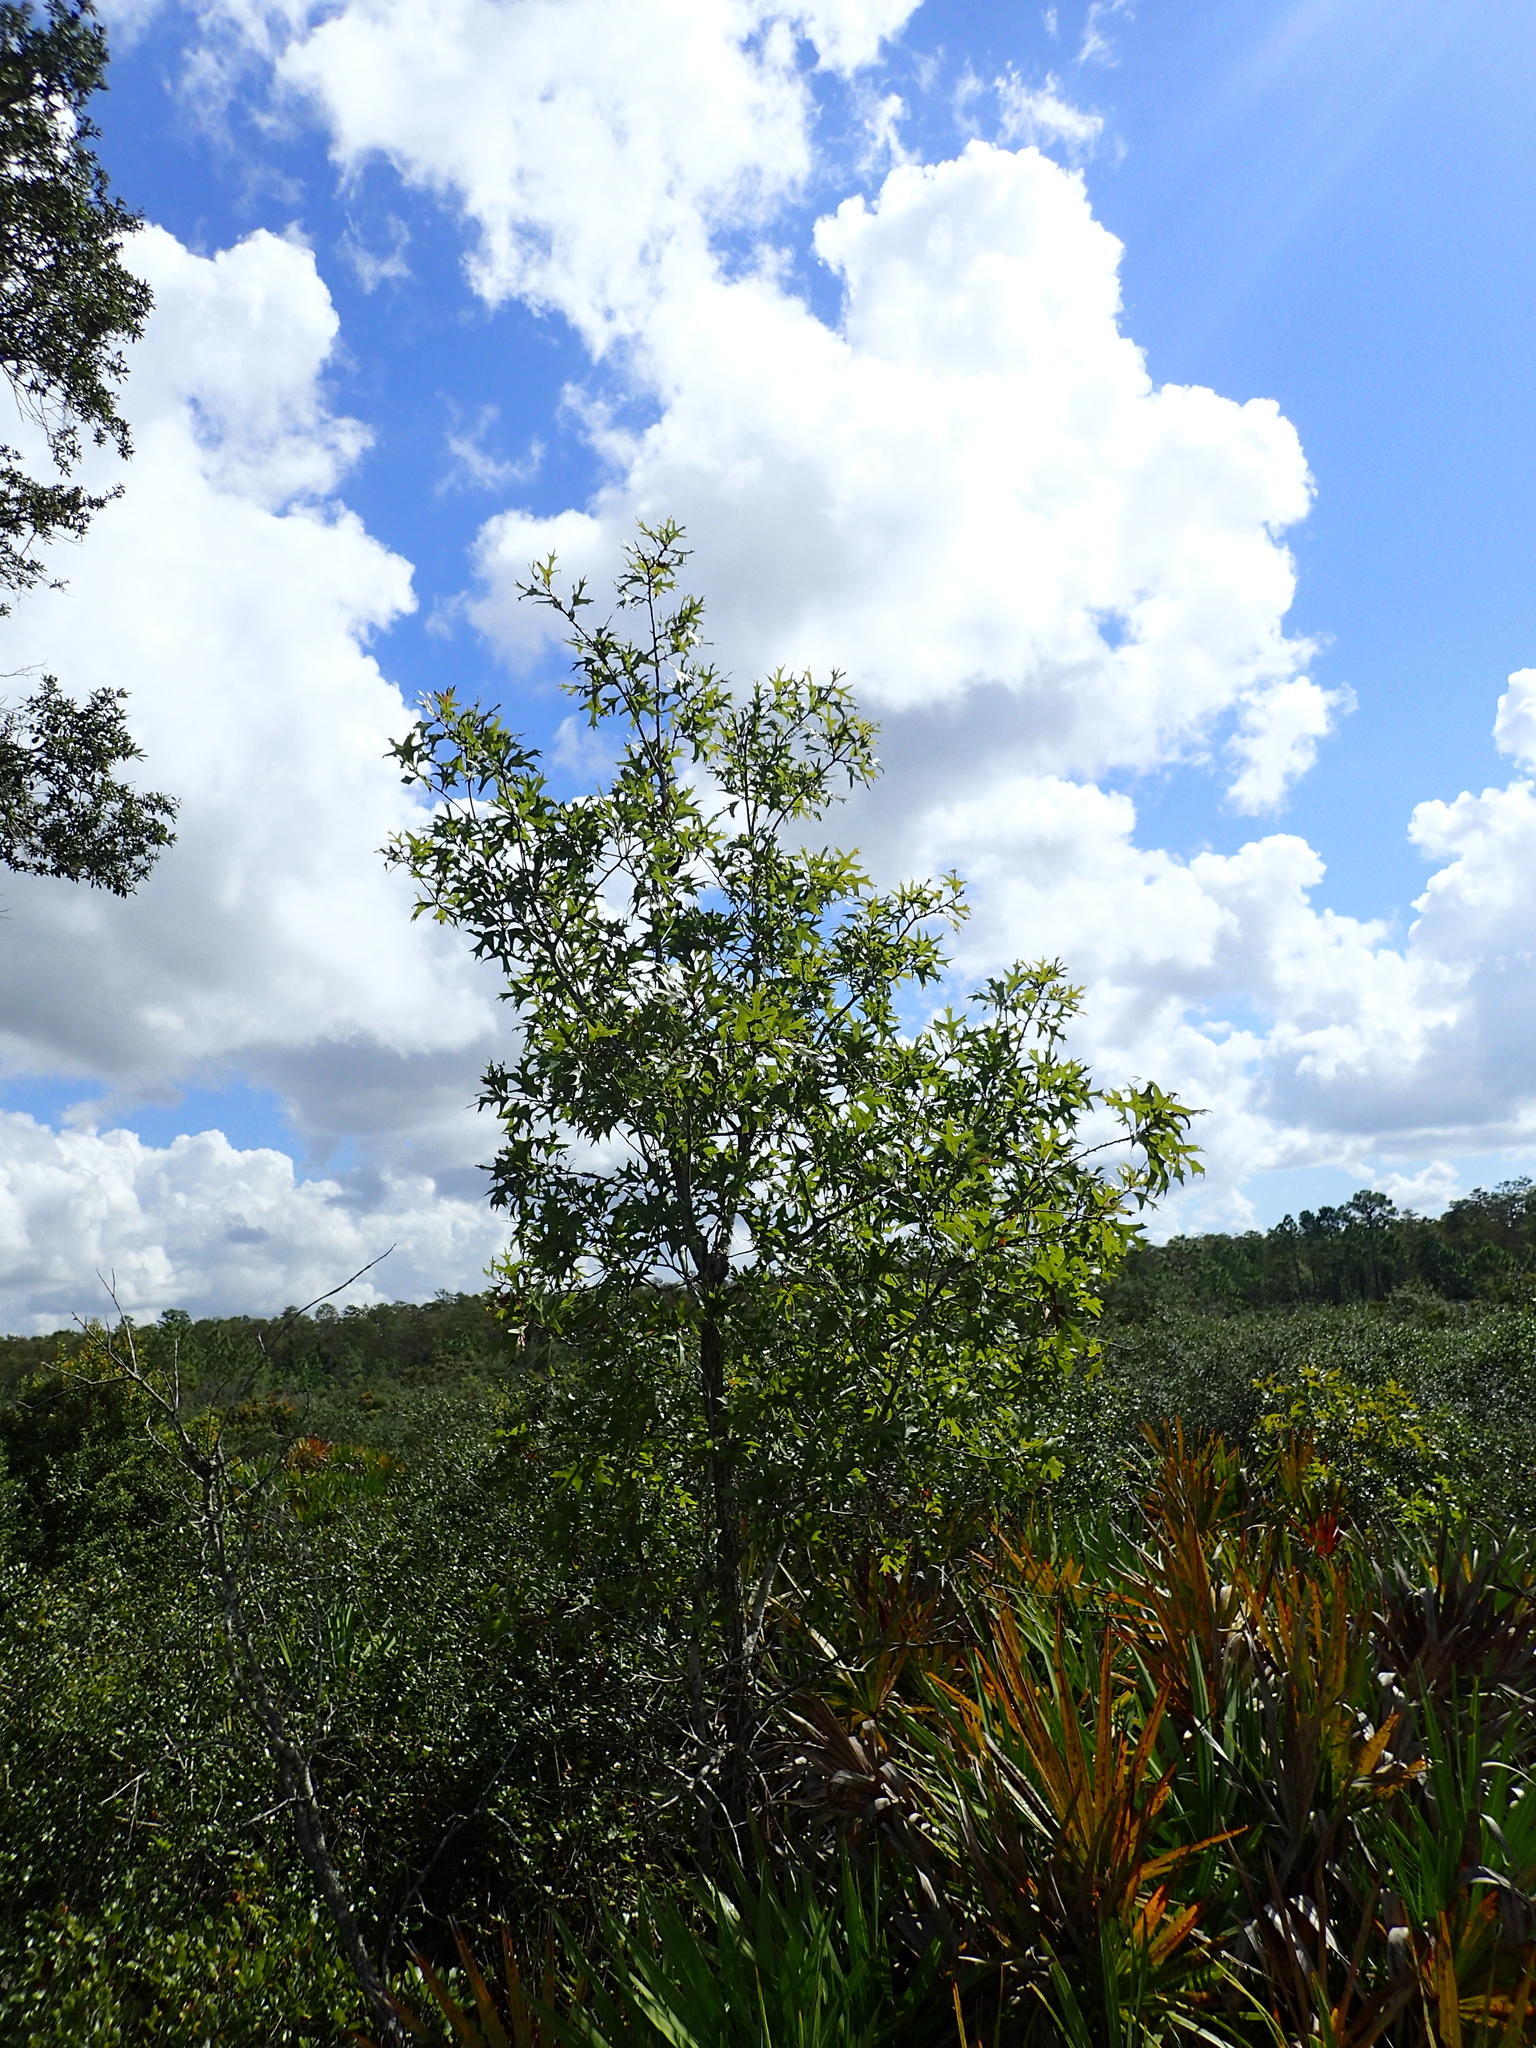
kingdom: Plantae
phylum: Tracheophyta
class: Magnoliopsida
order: Fagales
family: Fagaceae
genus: Quercus
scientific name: Quercus laevis
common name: Turkey oak
